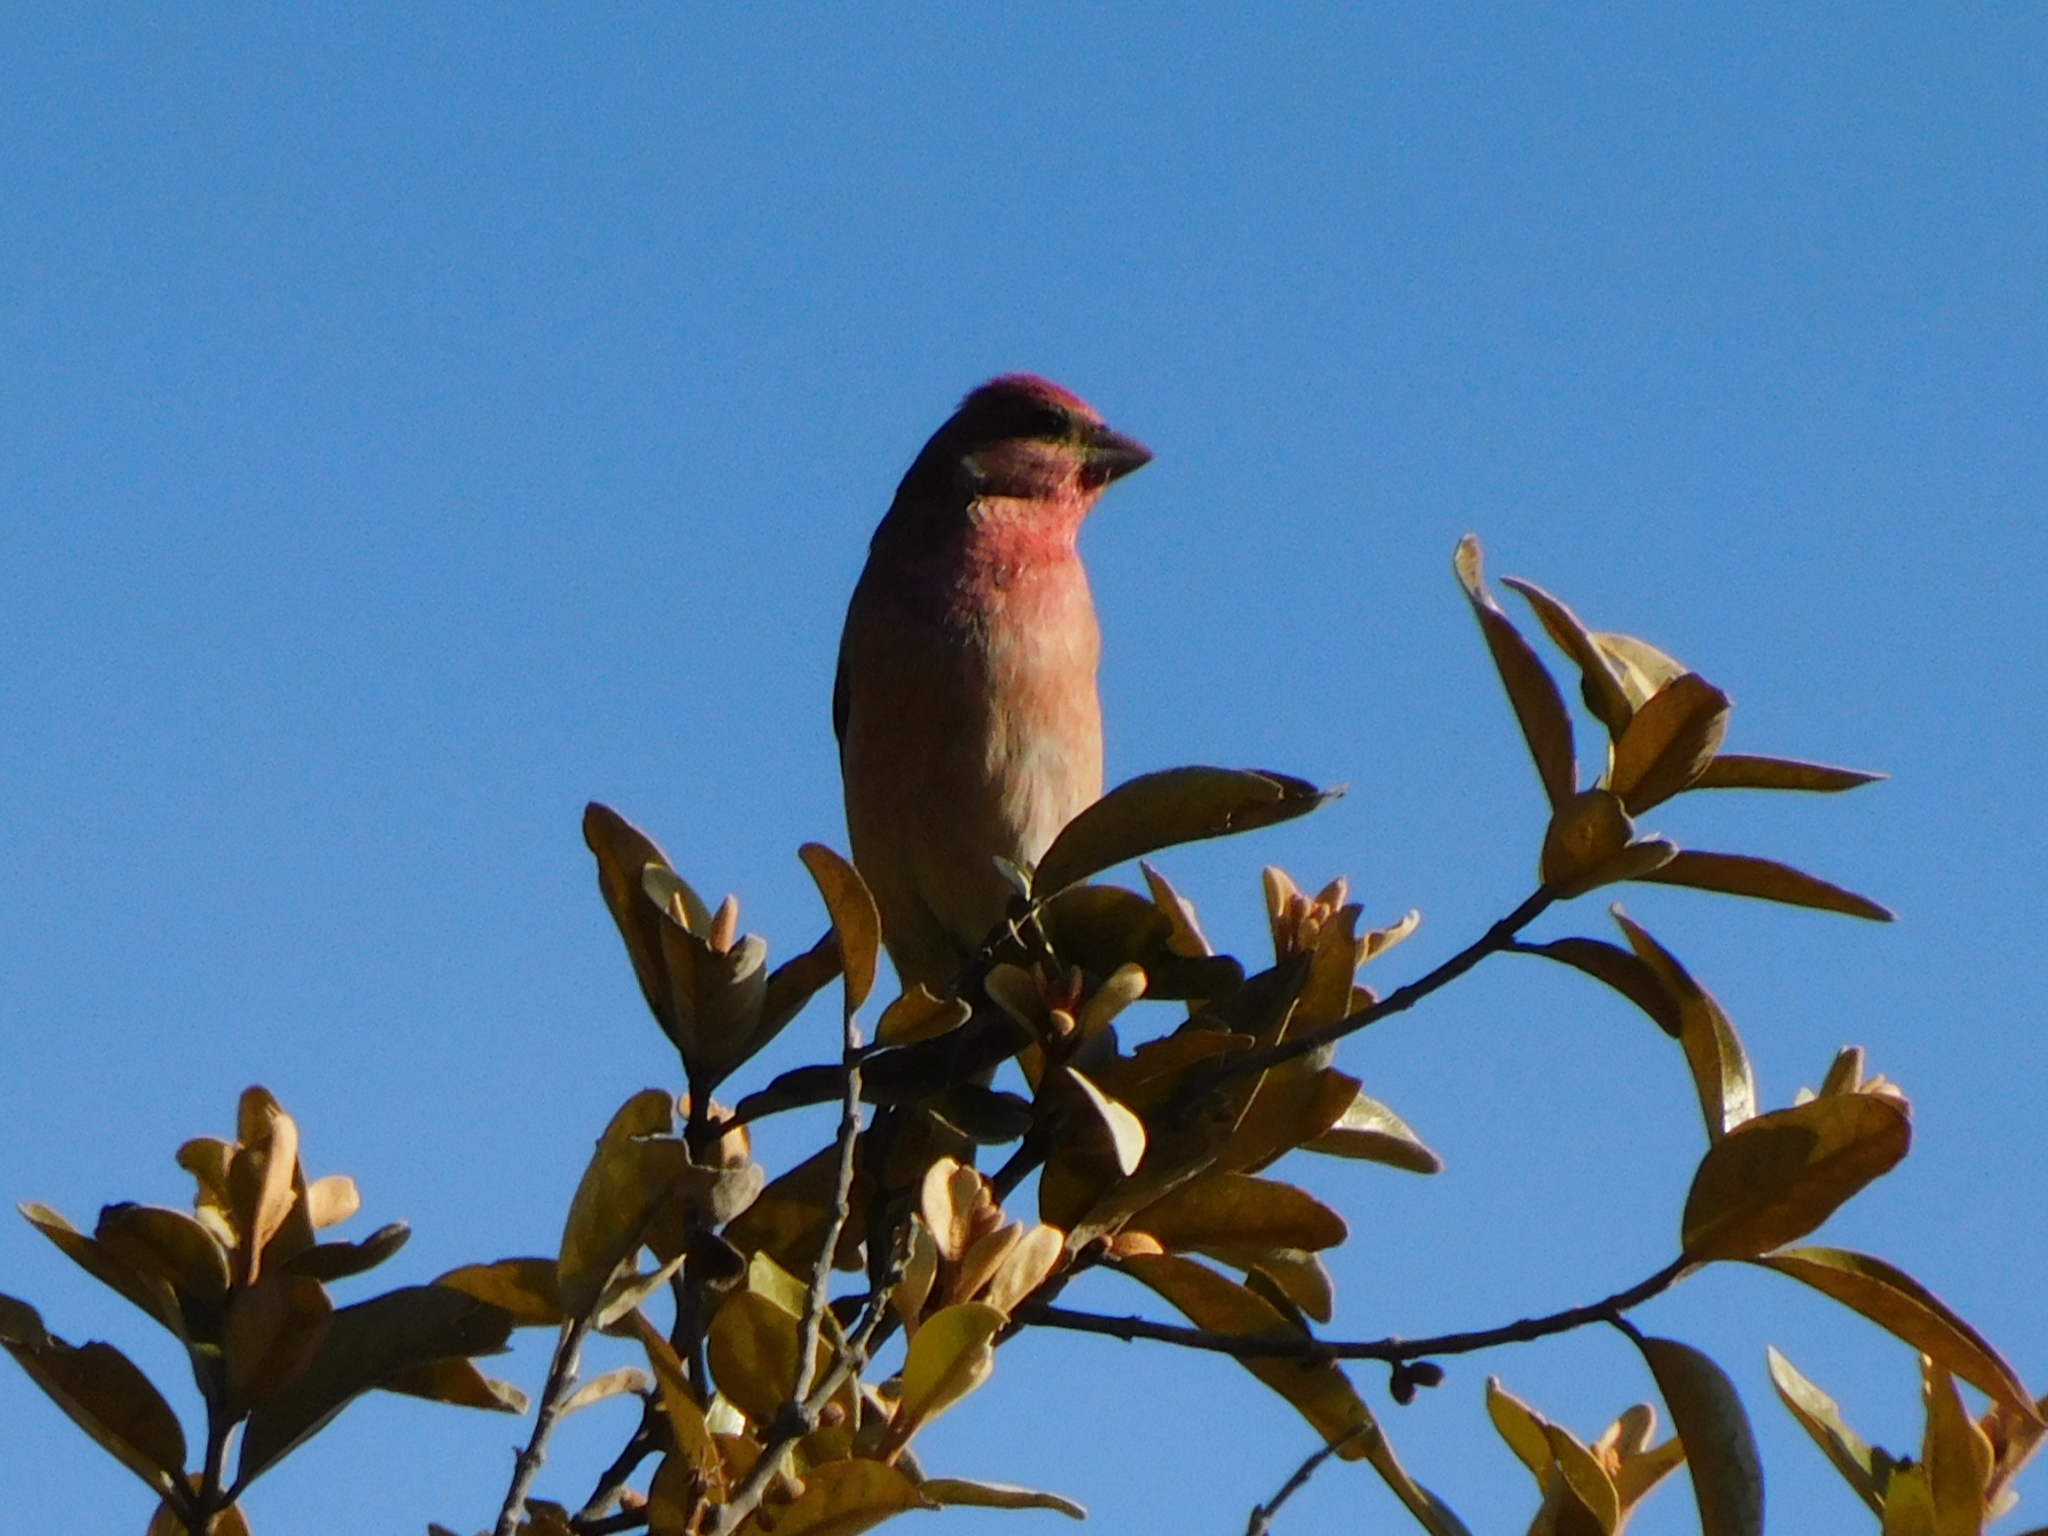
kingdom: Animalia
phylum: Chordata
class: Aves
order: Passeriformes
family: Fringillidae
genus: Carpodacus
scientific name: Carpodacus erythrinus
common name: Common rosefinch
